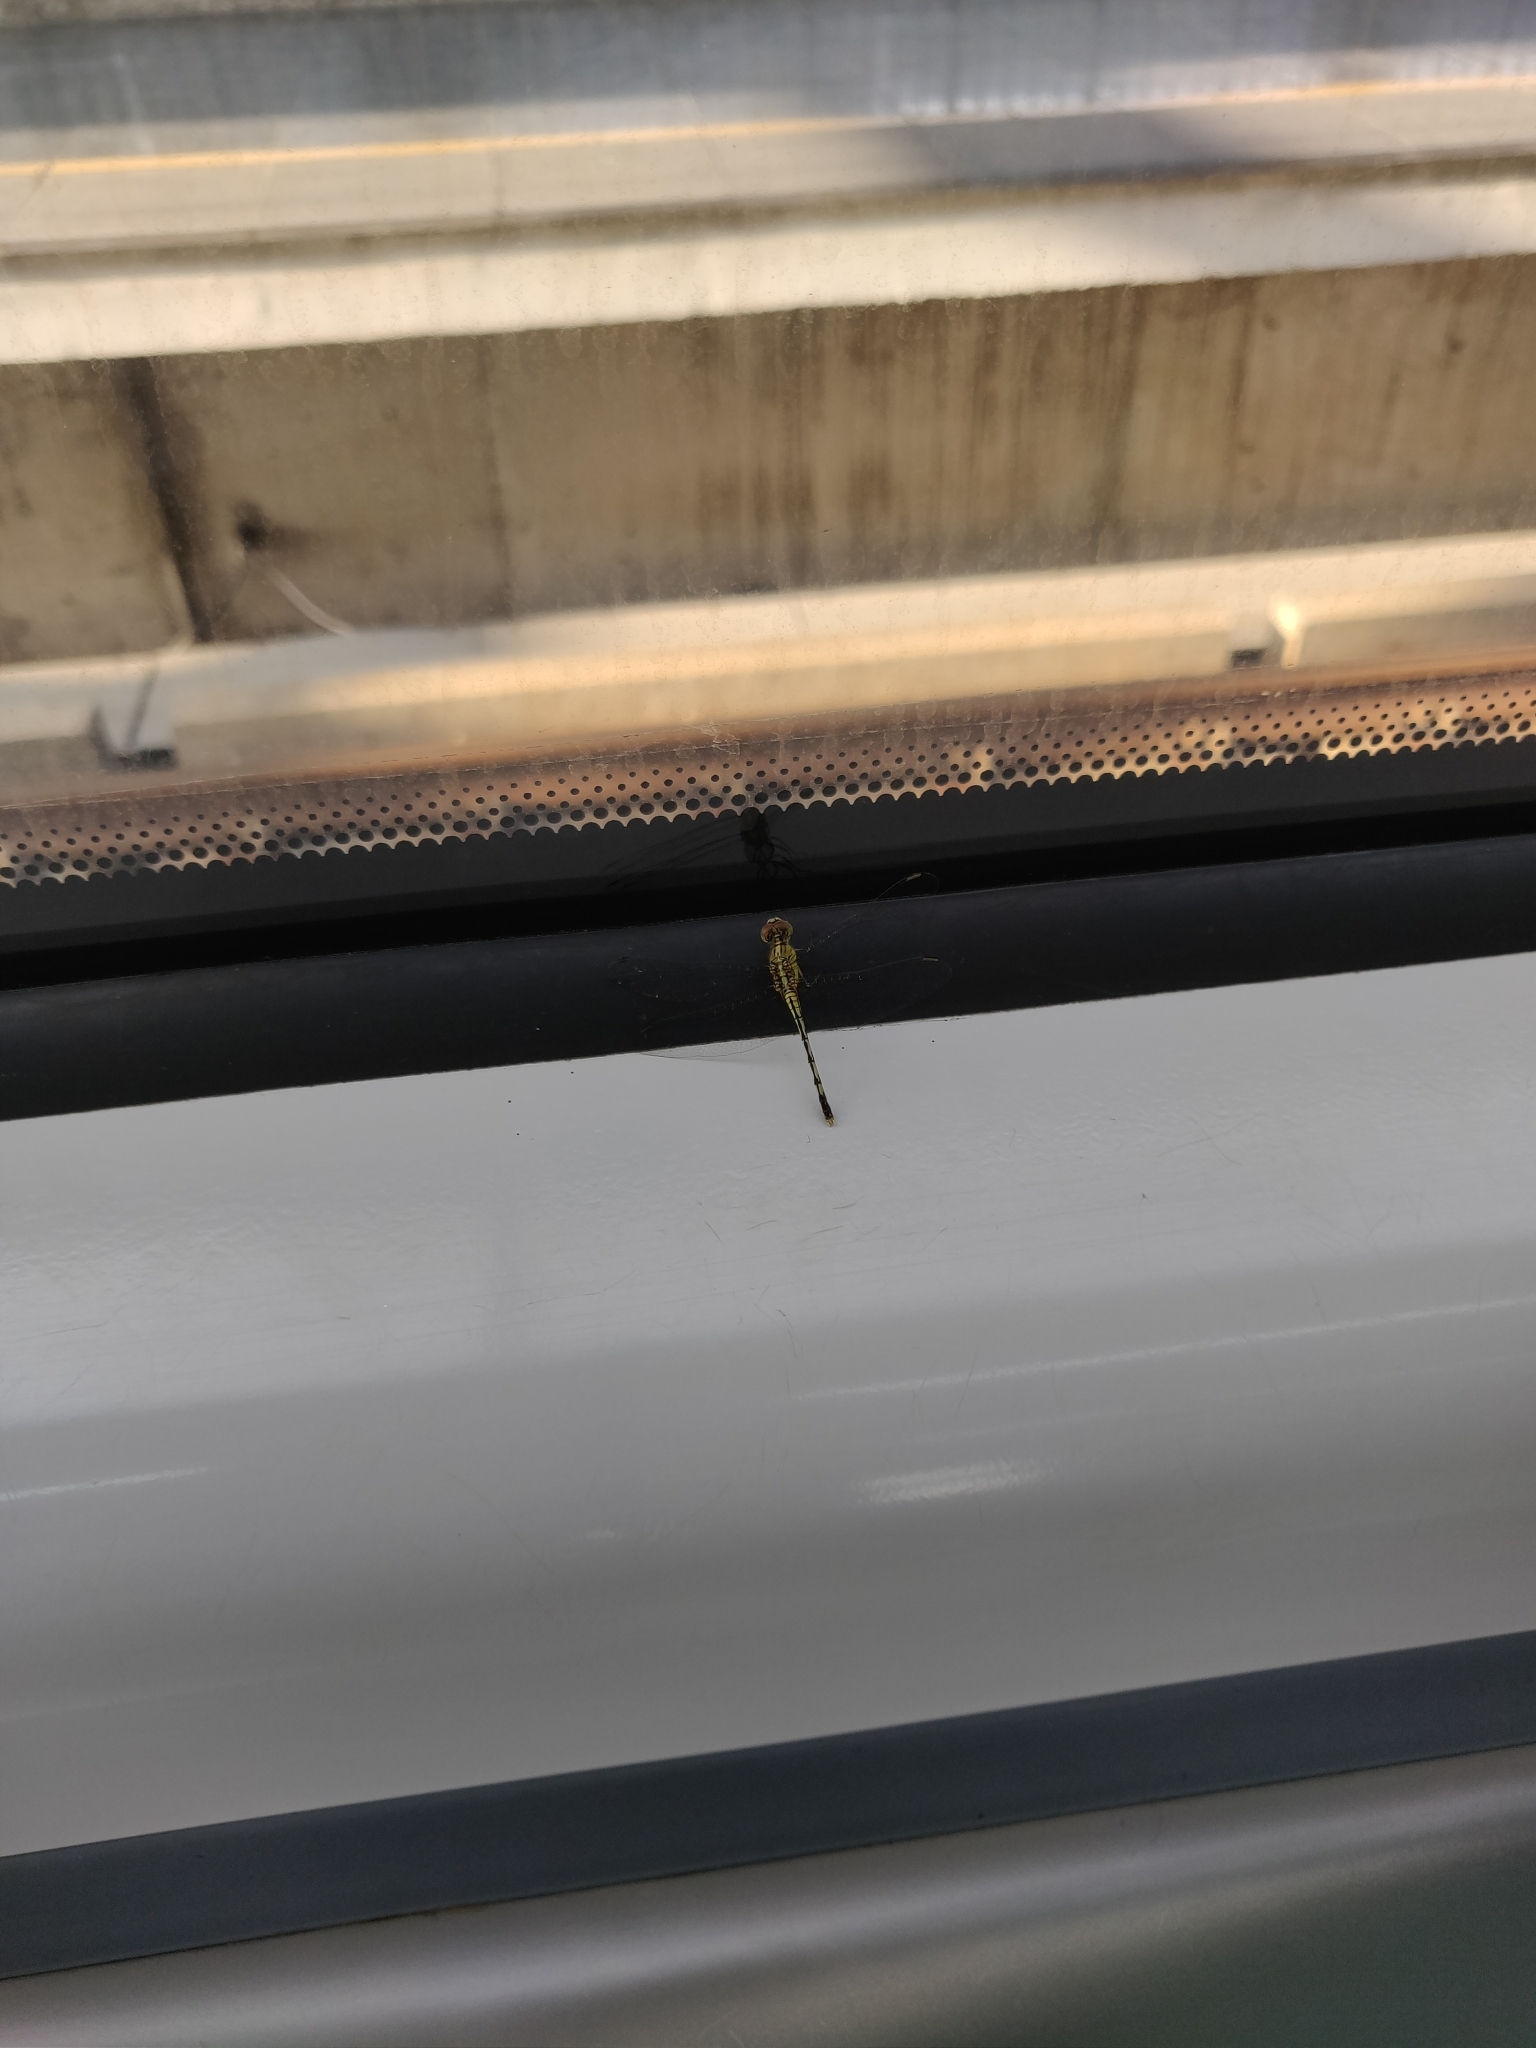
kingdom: Animalia
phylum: Arthropoda
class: Insecta
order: Odonata
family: Libellulidae
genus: Diplacodes
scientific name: Diplacodes trivialis
